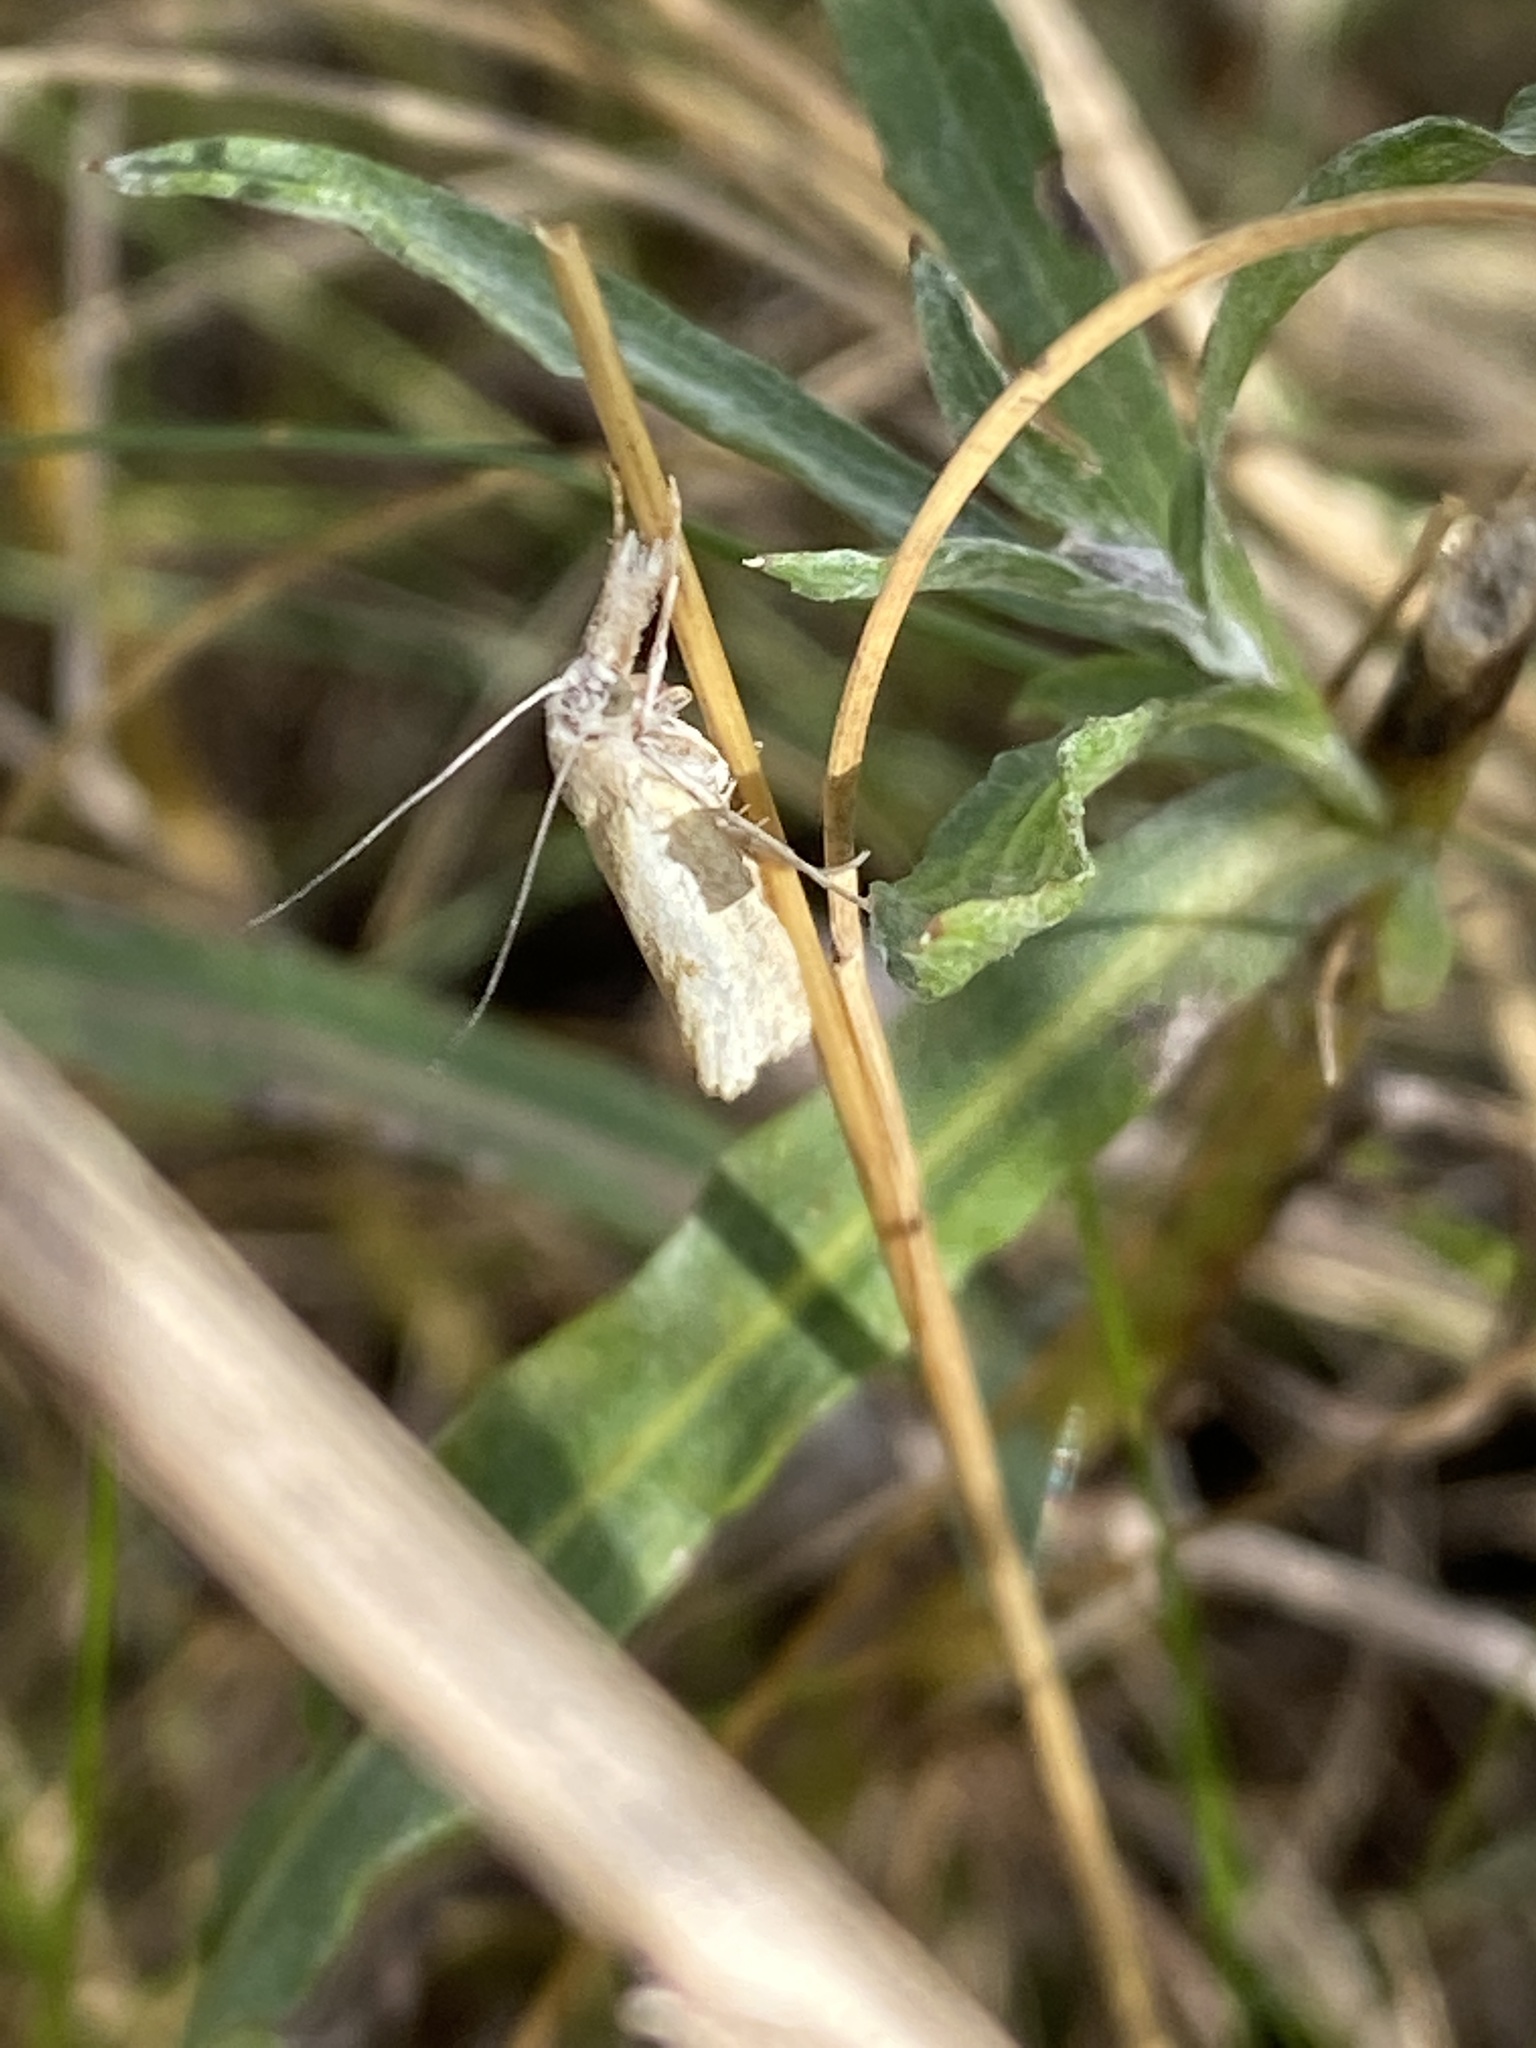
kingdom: Animalia
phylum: Arthropoda
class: Insecta
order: Lepidoptera
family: Crambidae
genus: Agriphila
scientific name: Agriphila inquinatella
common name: Barred grass-veneer
